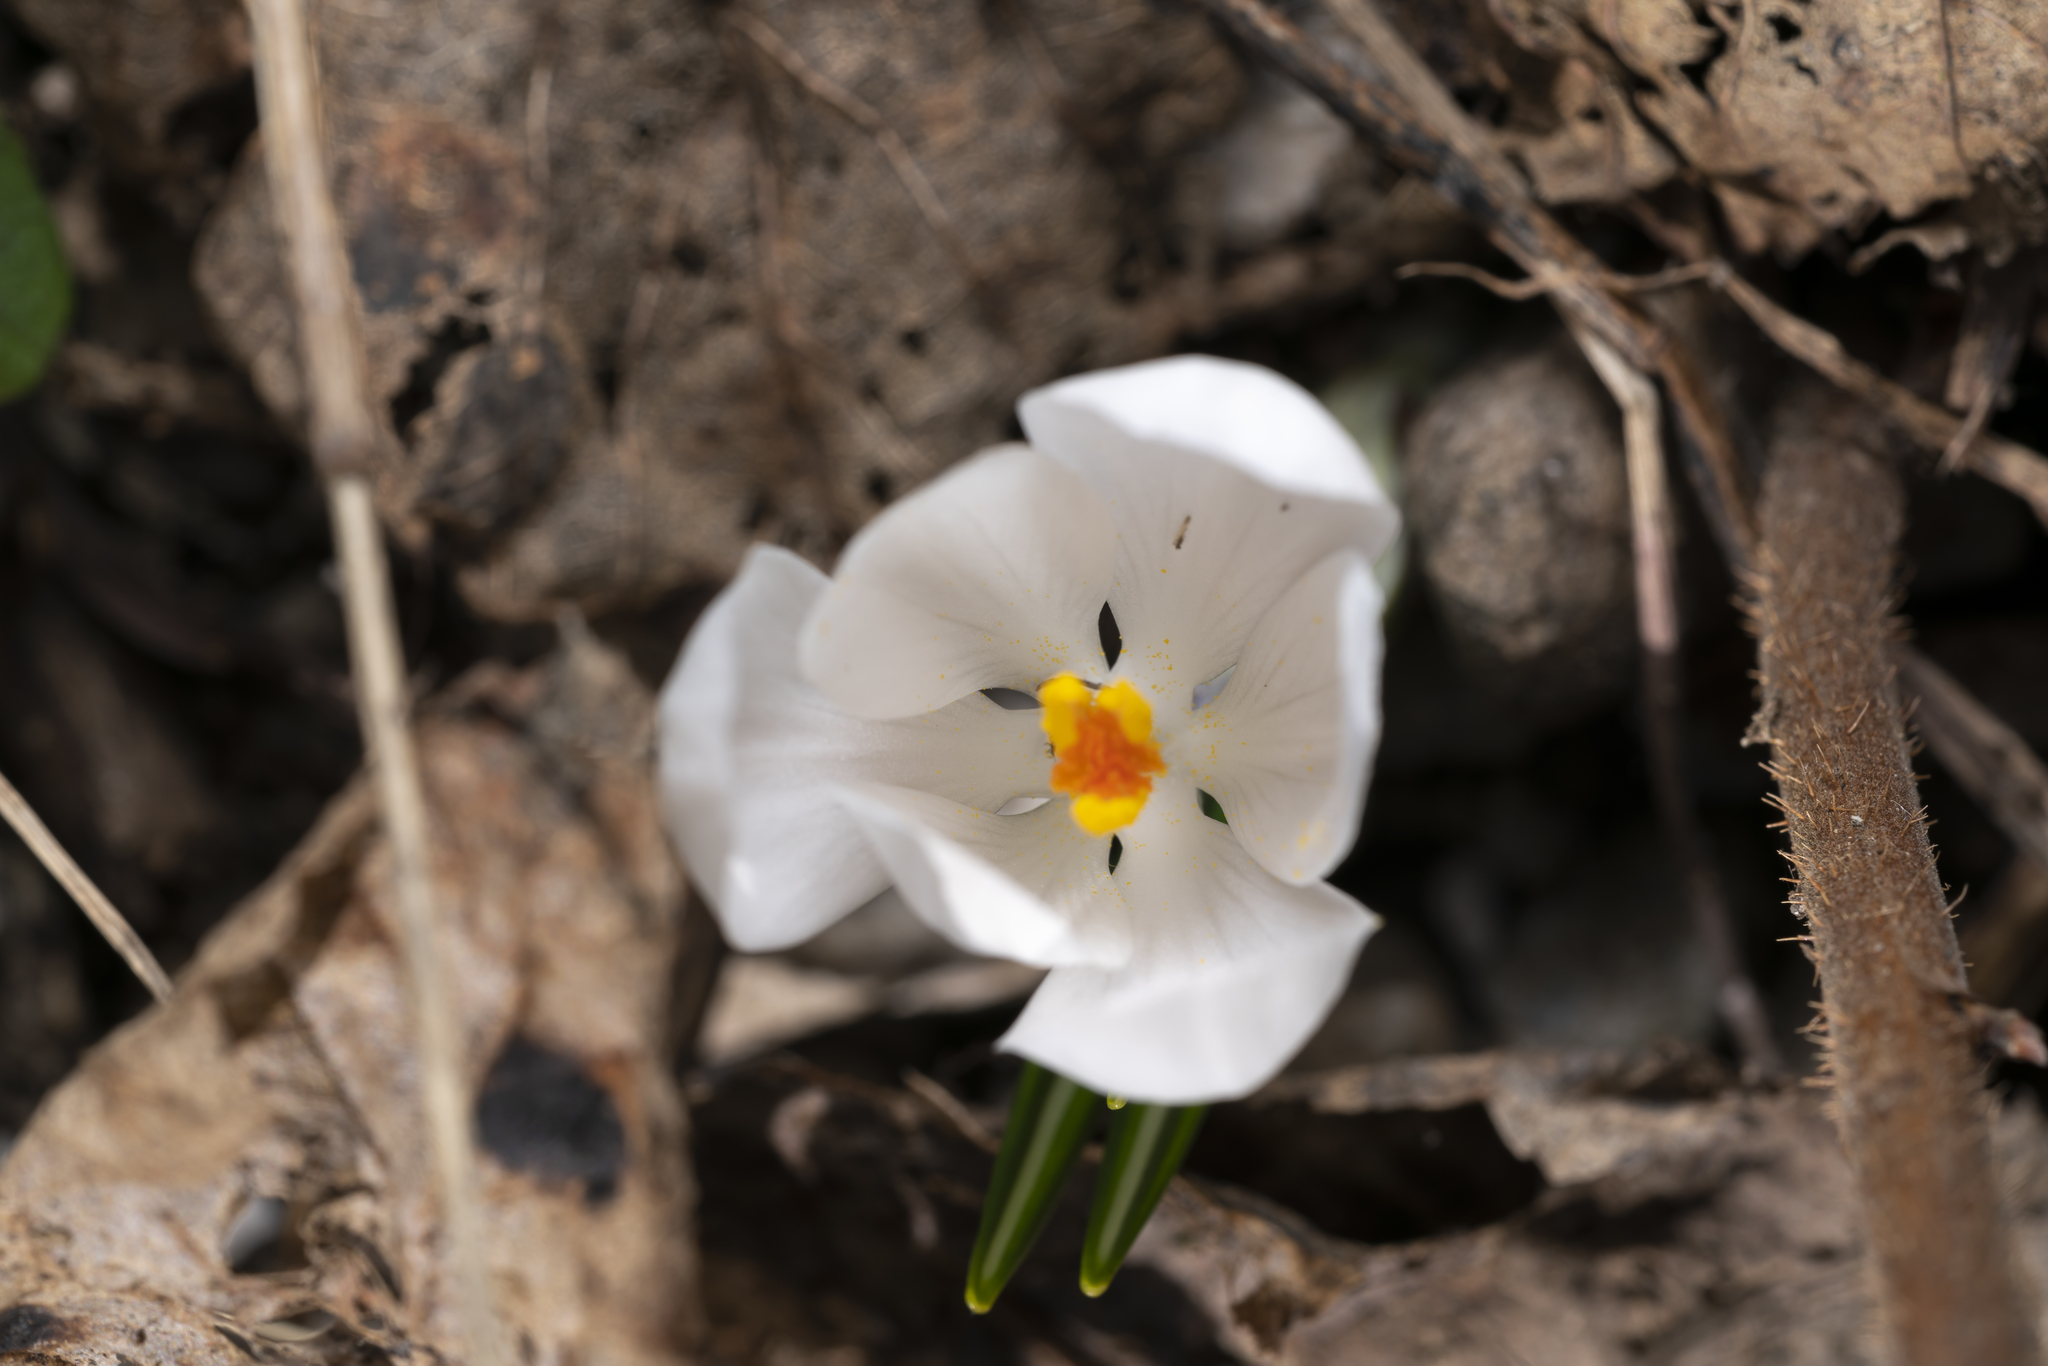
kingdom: Plantae
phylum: Tracheophyta
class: Liliopsida
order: Asparagales
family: Iridaceae
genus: Crocus
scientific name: Crocus vernus
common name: Spring crocus
